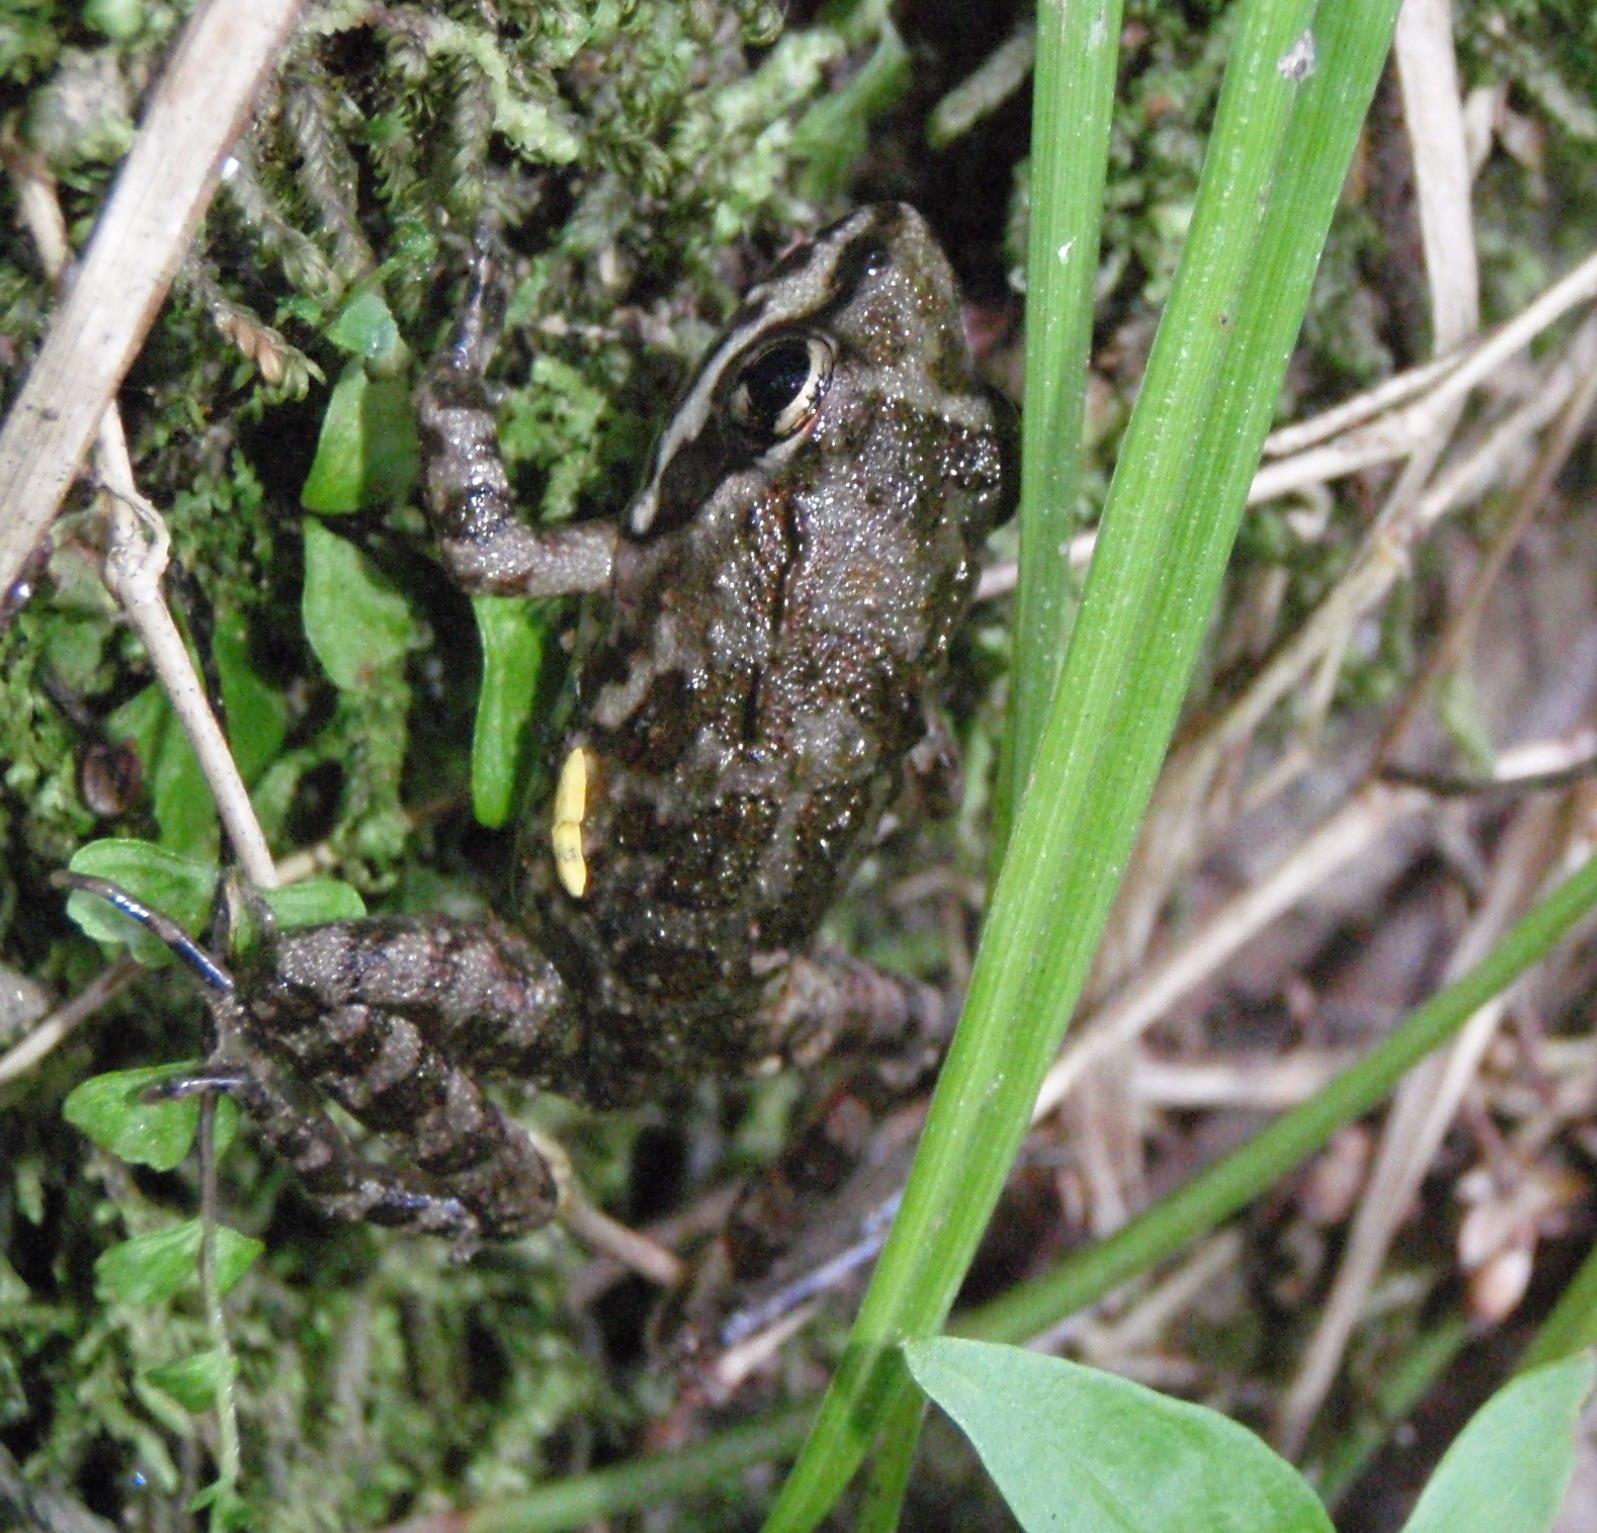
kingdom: Animalia
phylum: Chordata
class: Amphibia
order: Anura
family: Pyxicephalidae
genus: Amietia
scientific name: Amietia fuscigula
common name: Cape rana
